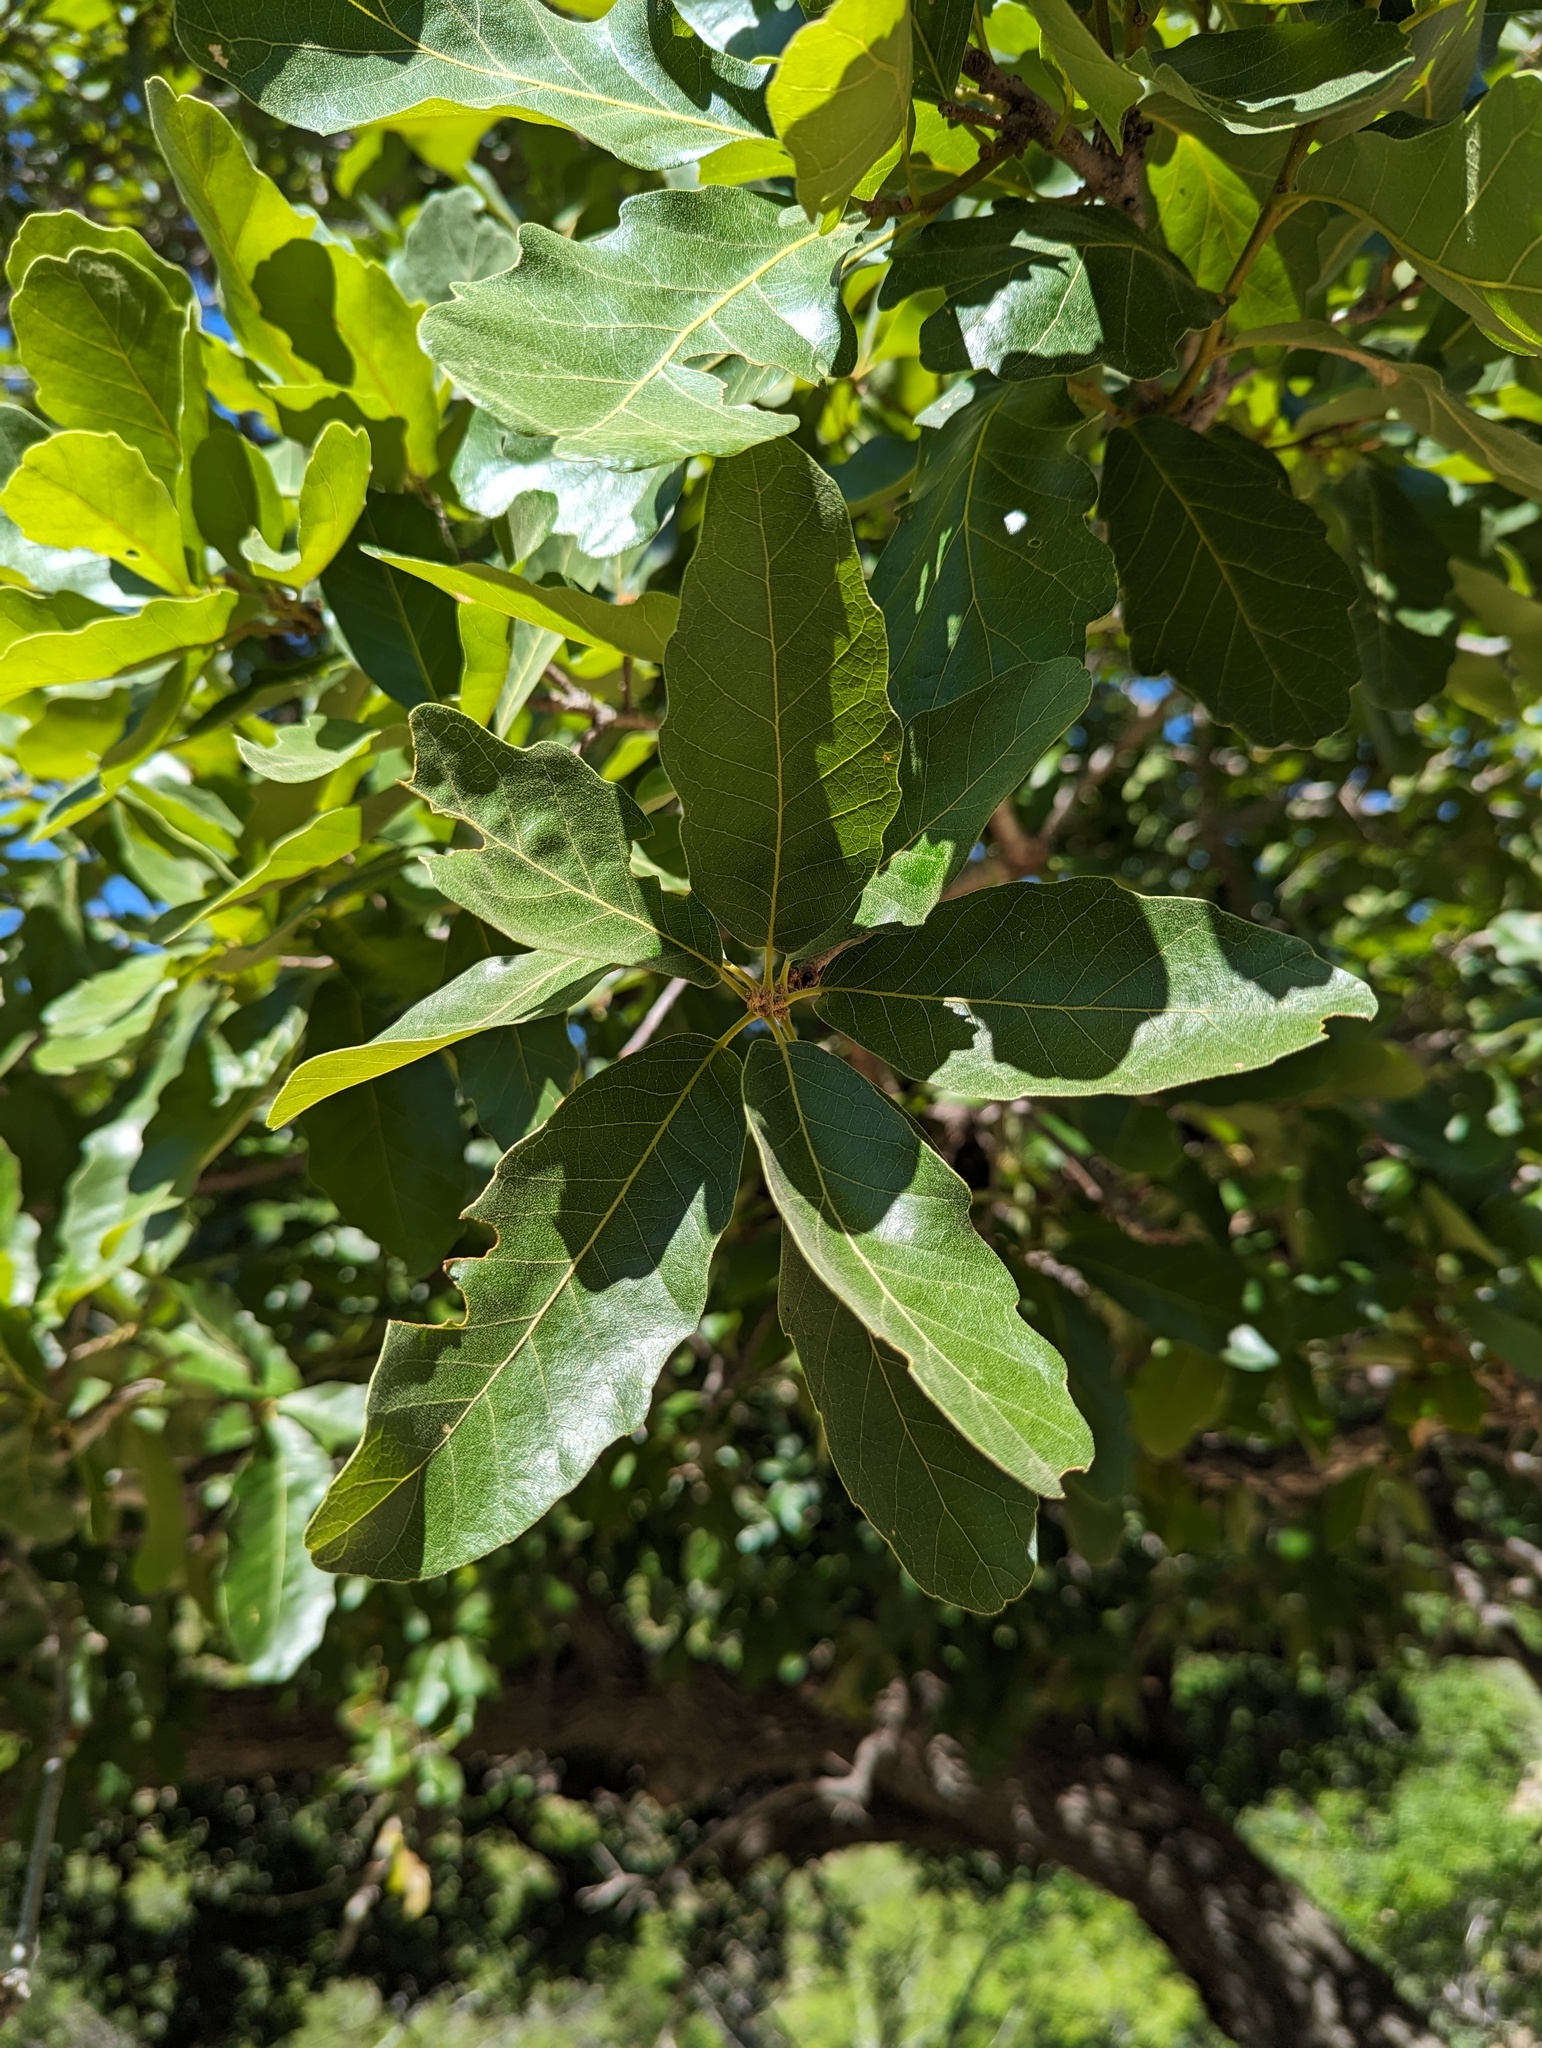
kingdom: Plantae
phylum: Tracheophyta
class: Magnoliopsida
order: Fagales
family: Fagaceae
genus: Quercus
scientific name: Quercus tuberculata
